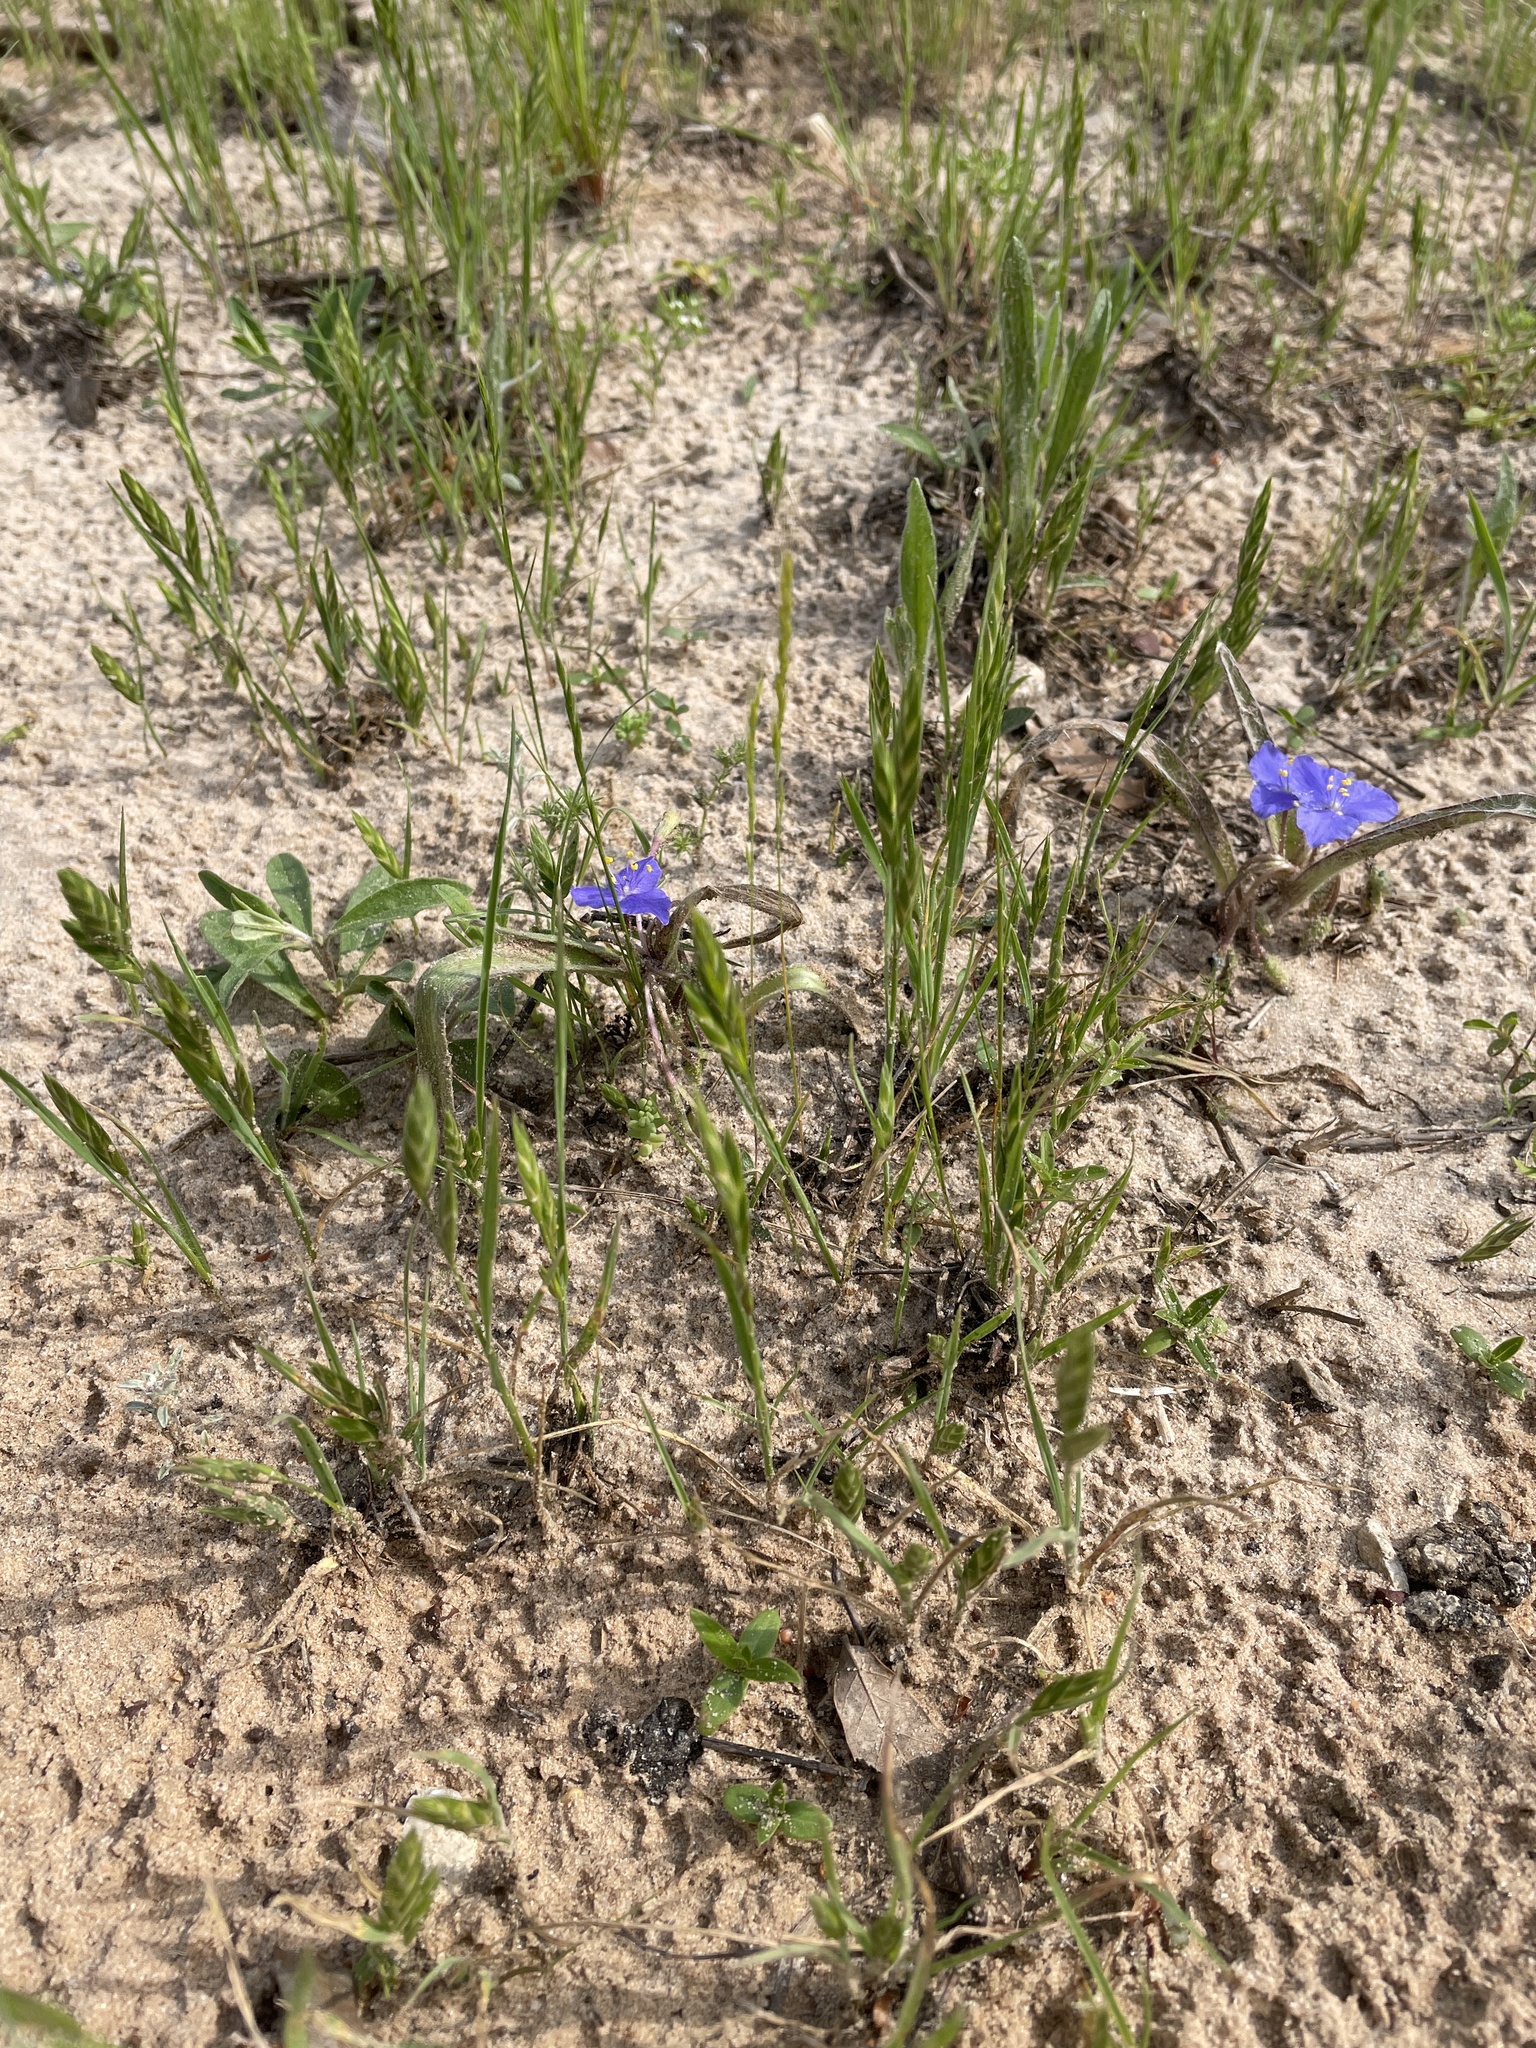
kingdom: Plantae
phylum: Tracheophyta
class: Liliopsida
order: Poales
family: Poaceae
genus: Bromus
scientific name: Bromus catharticus
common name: Rescuegrass
